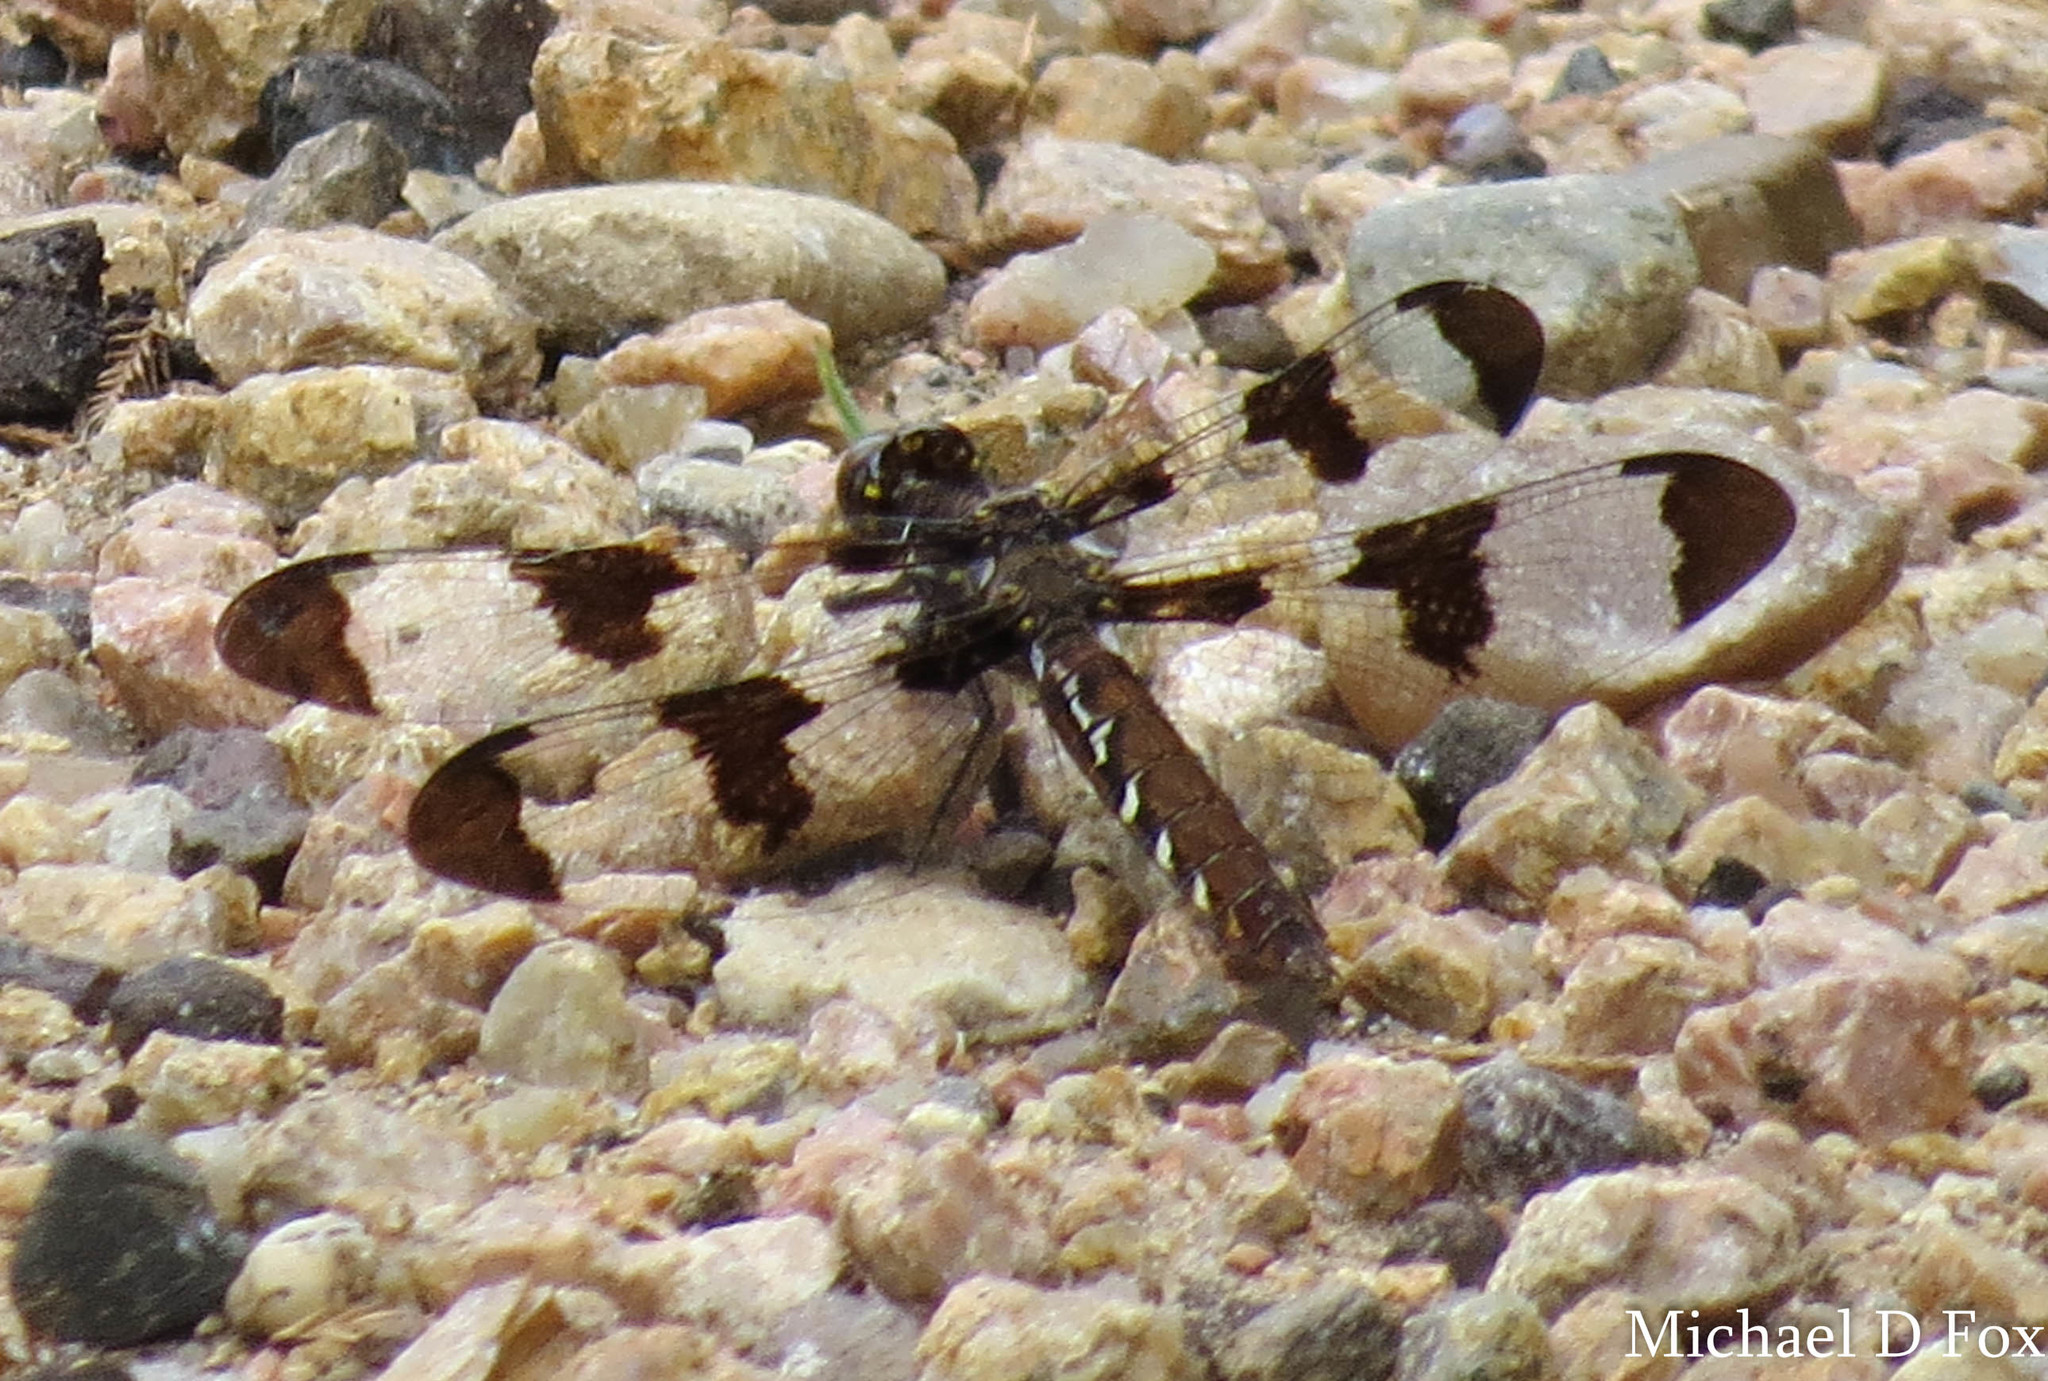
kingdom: Animalia
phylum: Arthropoda
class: Insecta
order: Odonata
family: Libellulidae
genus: Plathemis
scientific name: Plathemis lydia
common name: Common whitetail
